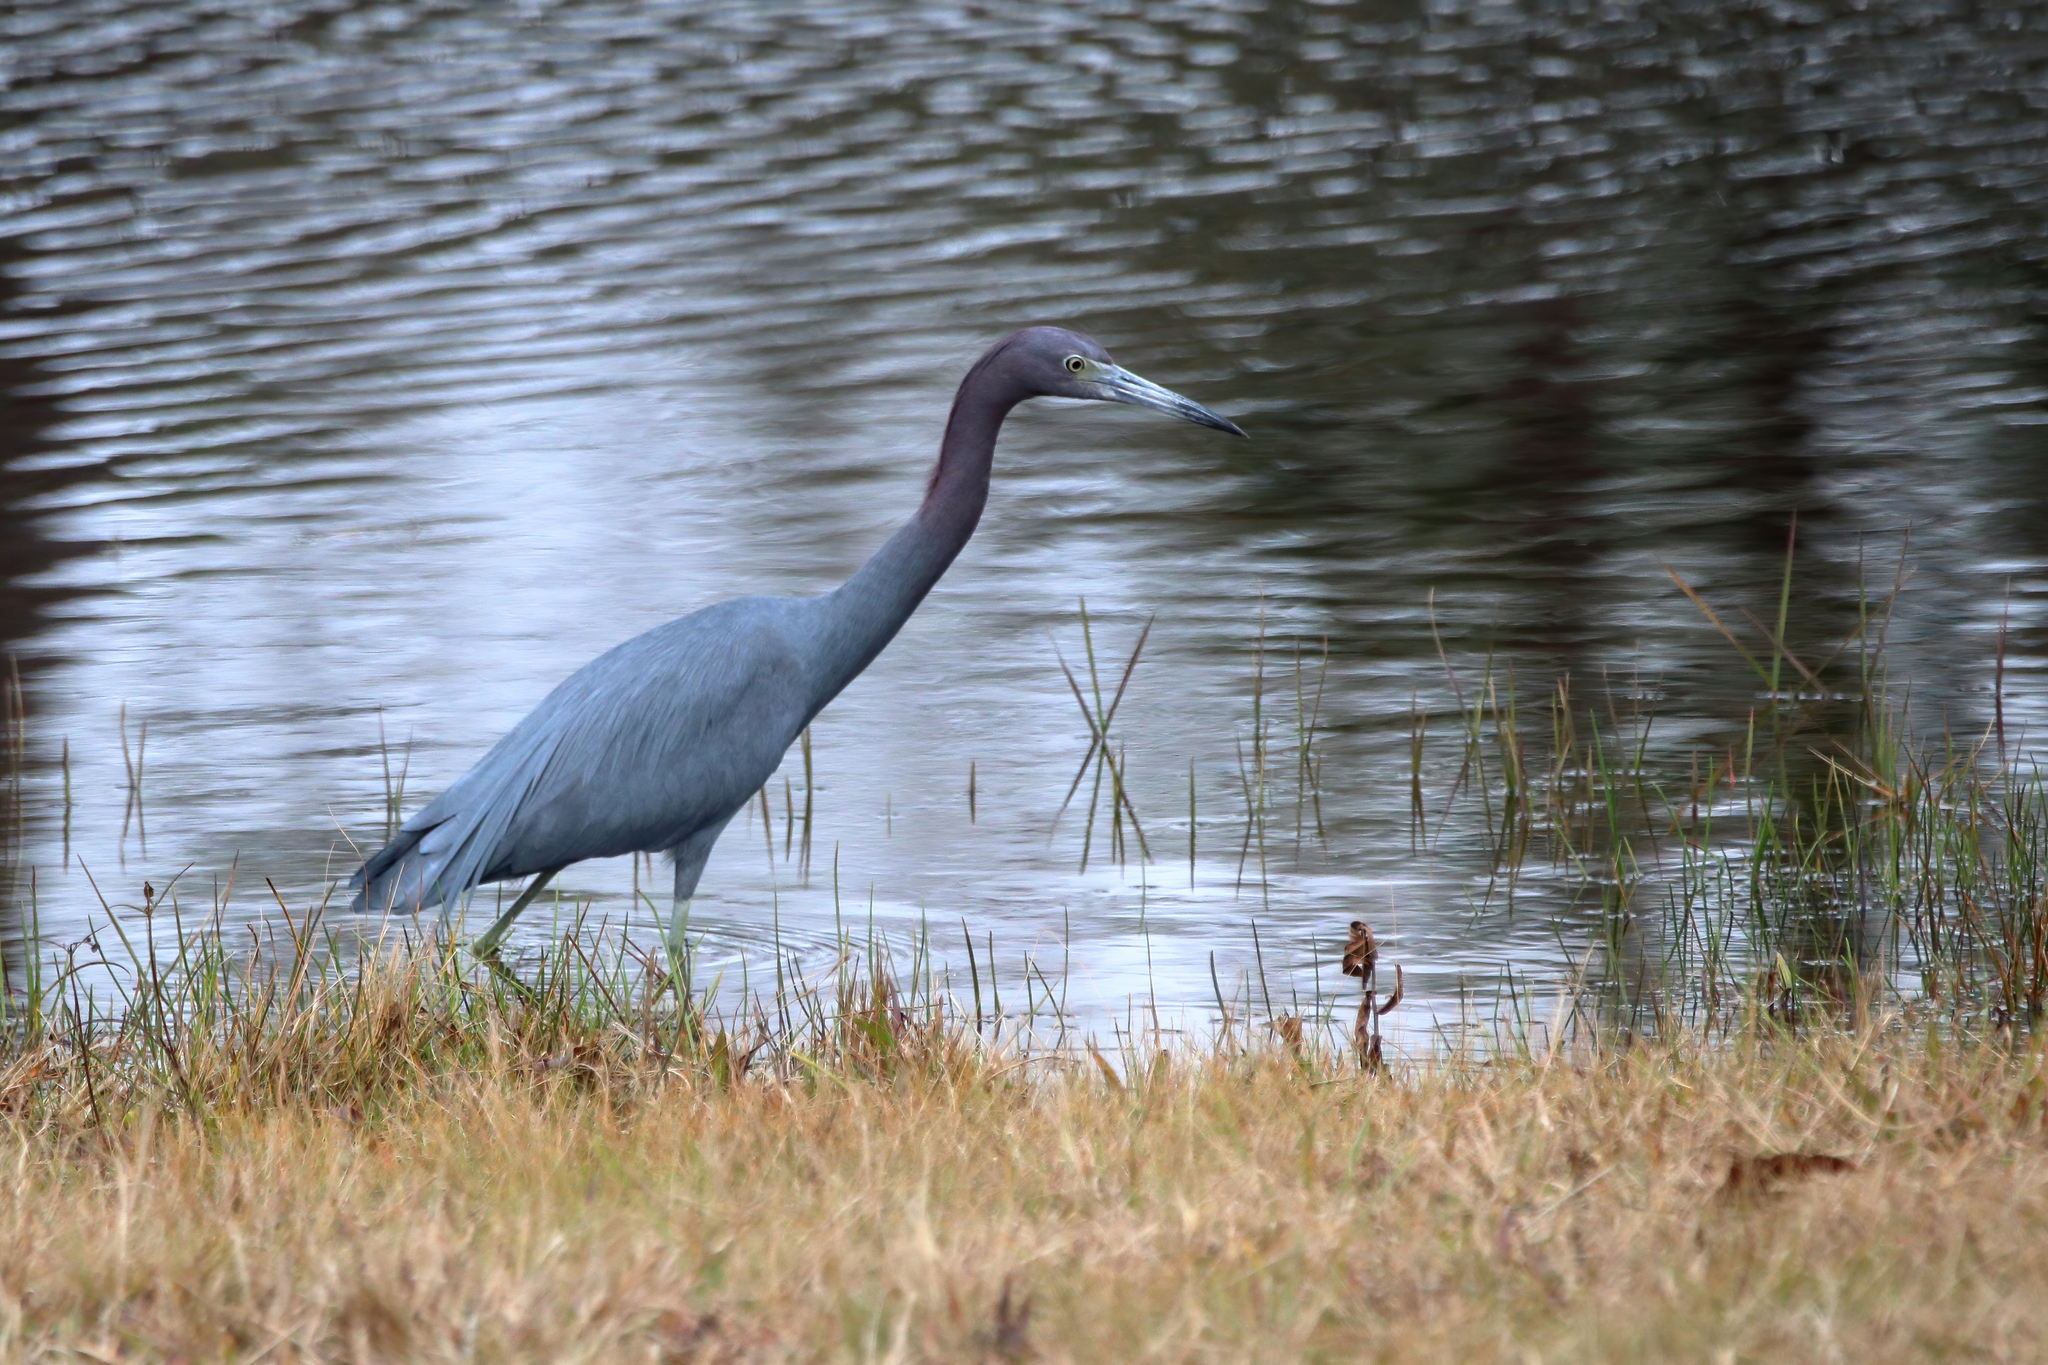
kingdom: Animalia
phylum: Chordata
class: Aves
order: Pelecaniformes
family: Ardeidae
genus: Egretta
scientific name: Egretta caerulea
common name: Little blue heron
